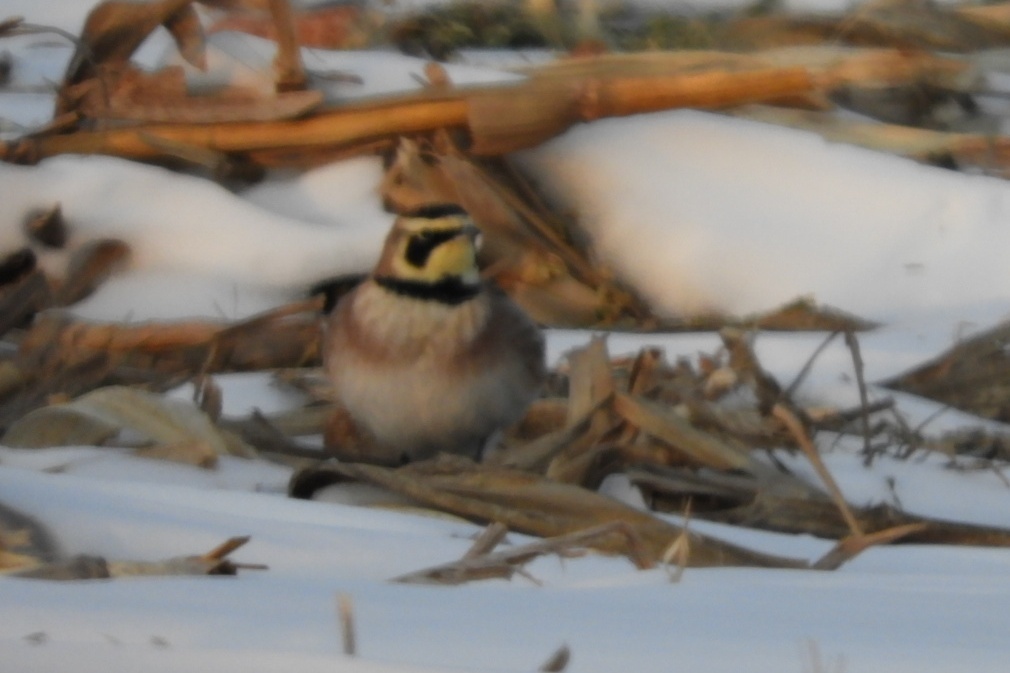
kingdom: Animalia
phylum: Chordata
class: Aves
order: Passeriformes
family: Alaudidae
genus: Eremophila
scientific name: Eremophila alpestris
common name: Horned lark
